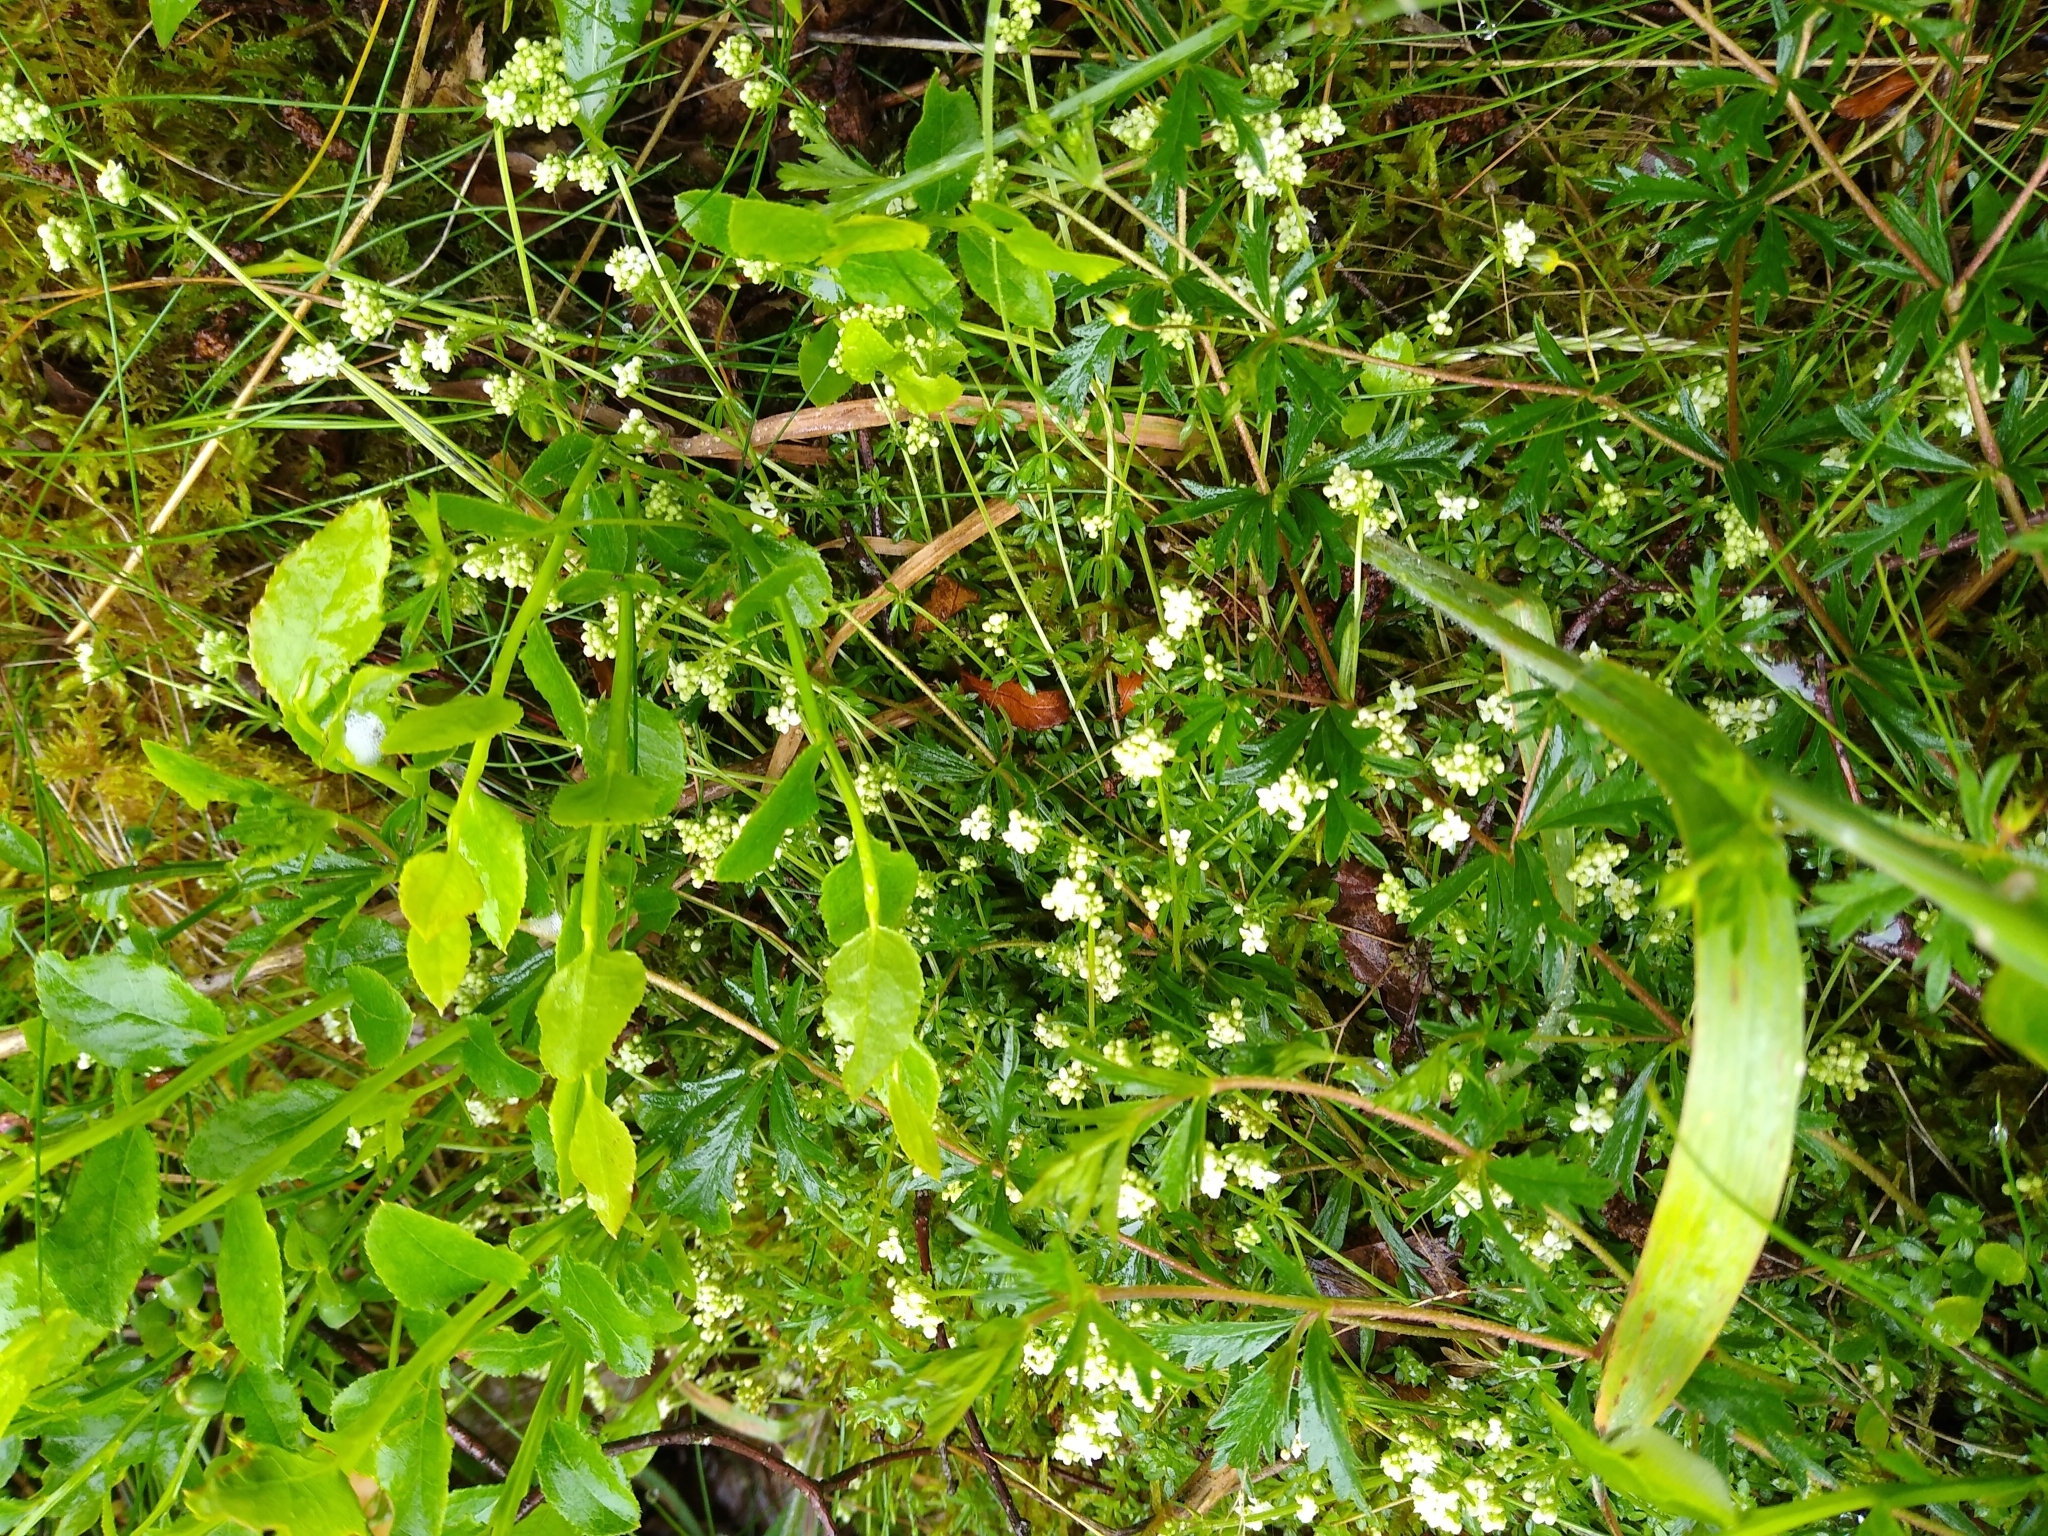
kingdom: Plantae
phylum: Tracheophyta
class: Magnoliopsida
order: Gentianales
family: Rubiaceae
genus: Galium
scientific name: Galium saxatile
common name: Heath bedstraw
